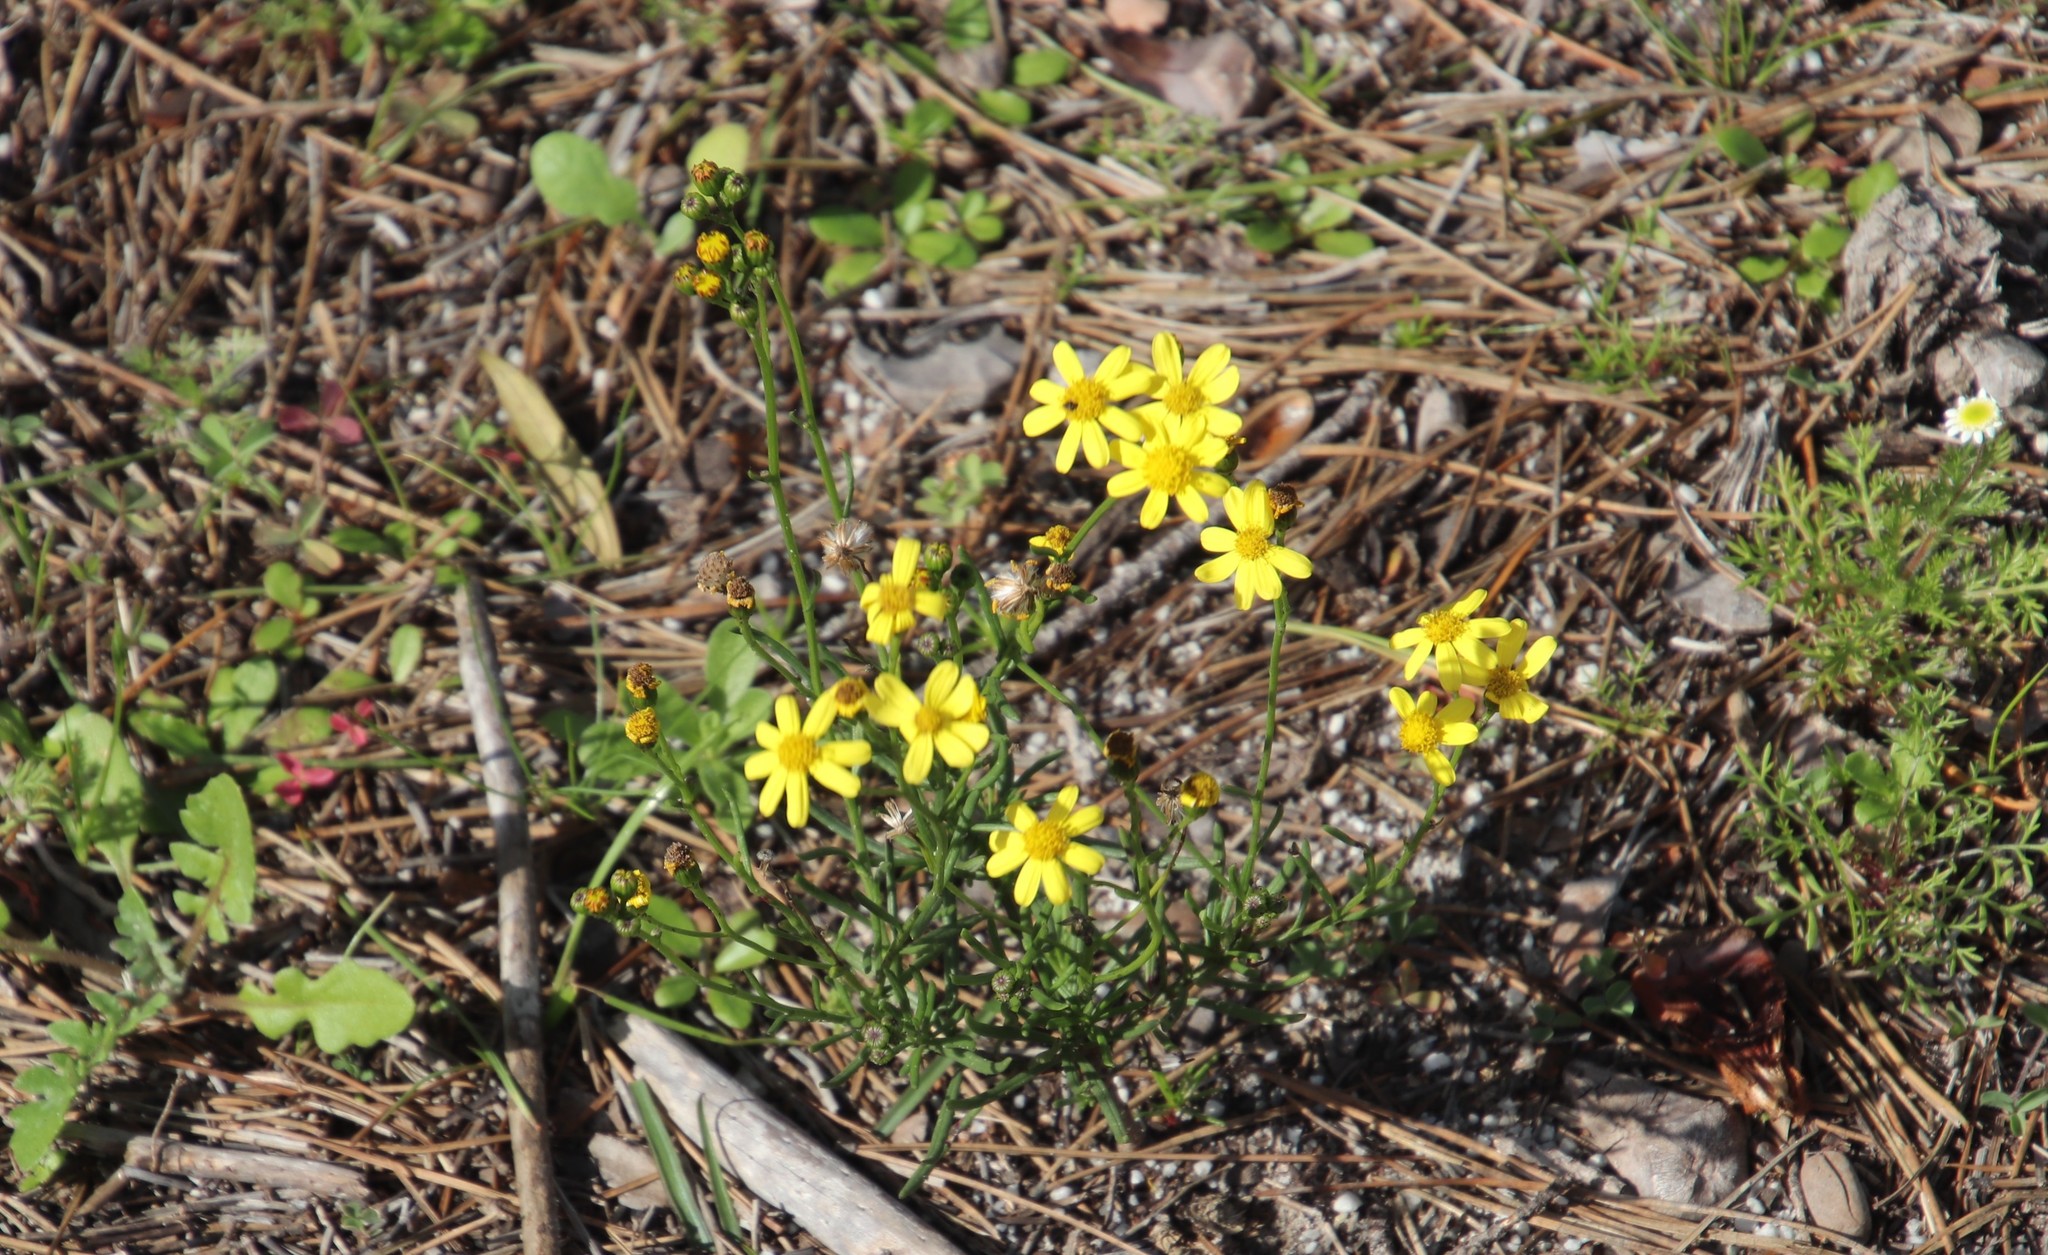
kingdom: Plantae
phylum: Tracheophyta
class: Magnoliopsida
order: Asterales
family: Asteraceae
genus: Senecio
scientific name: Senecio burchellii
